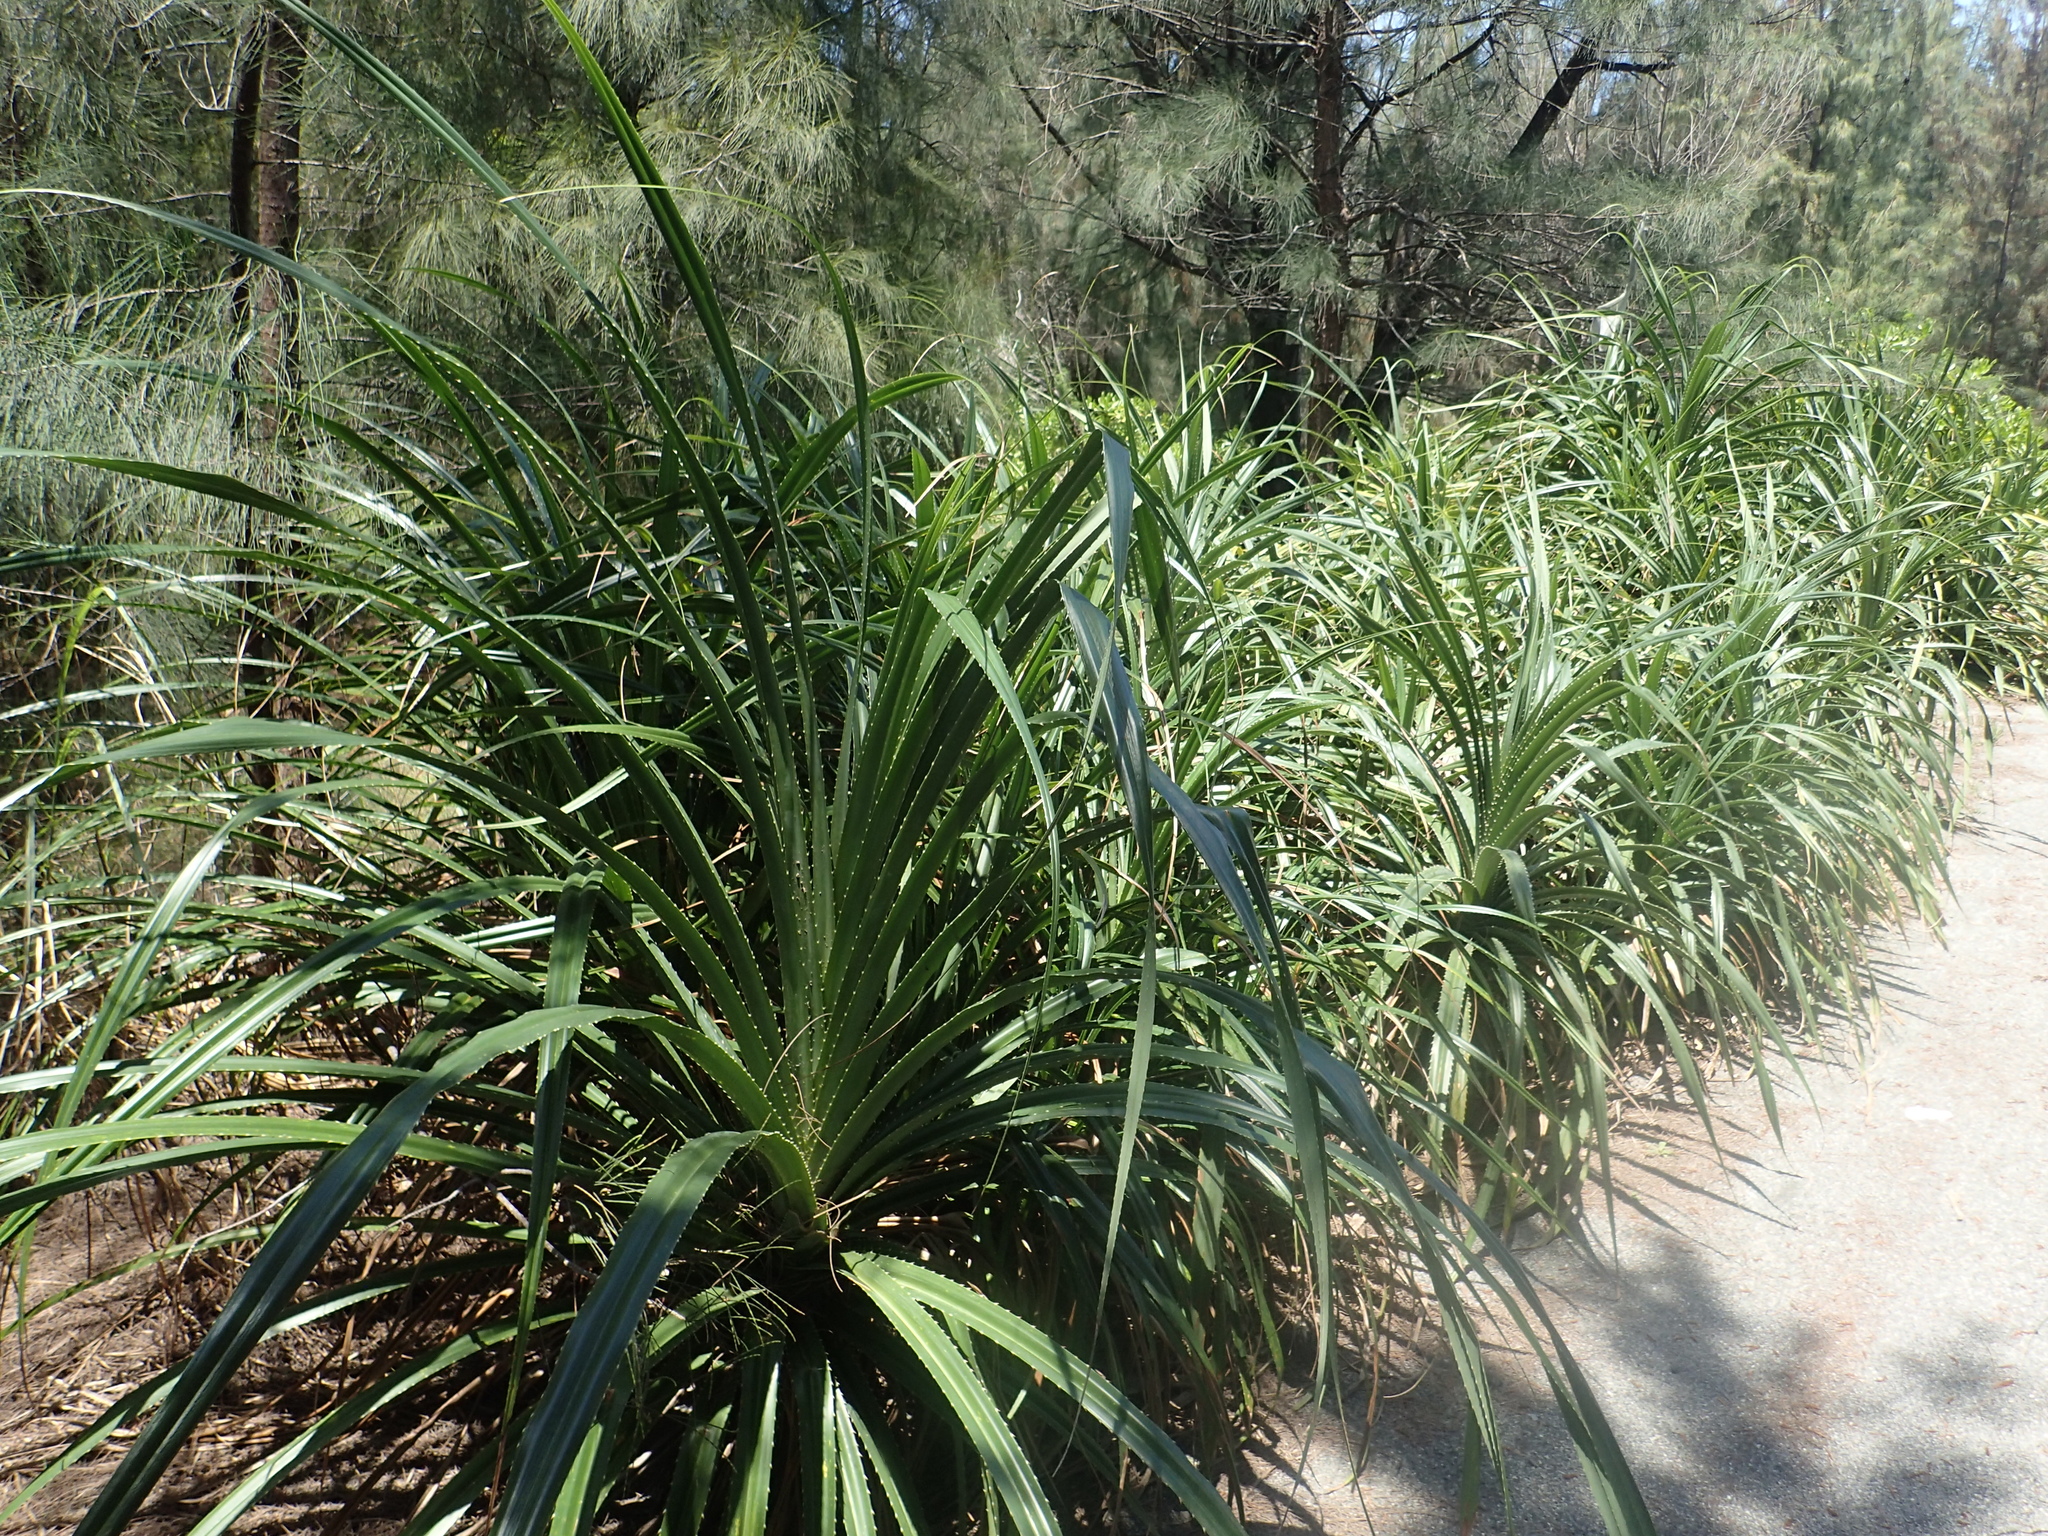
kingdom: Plantae
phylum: Tracheophyta
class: Liliopsida
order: Pandanales
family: Pandanaceae
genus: Pandanus
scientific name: Pandanus odorifer
